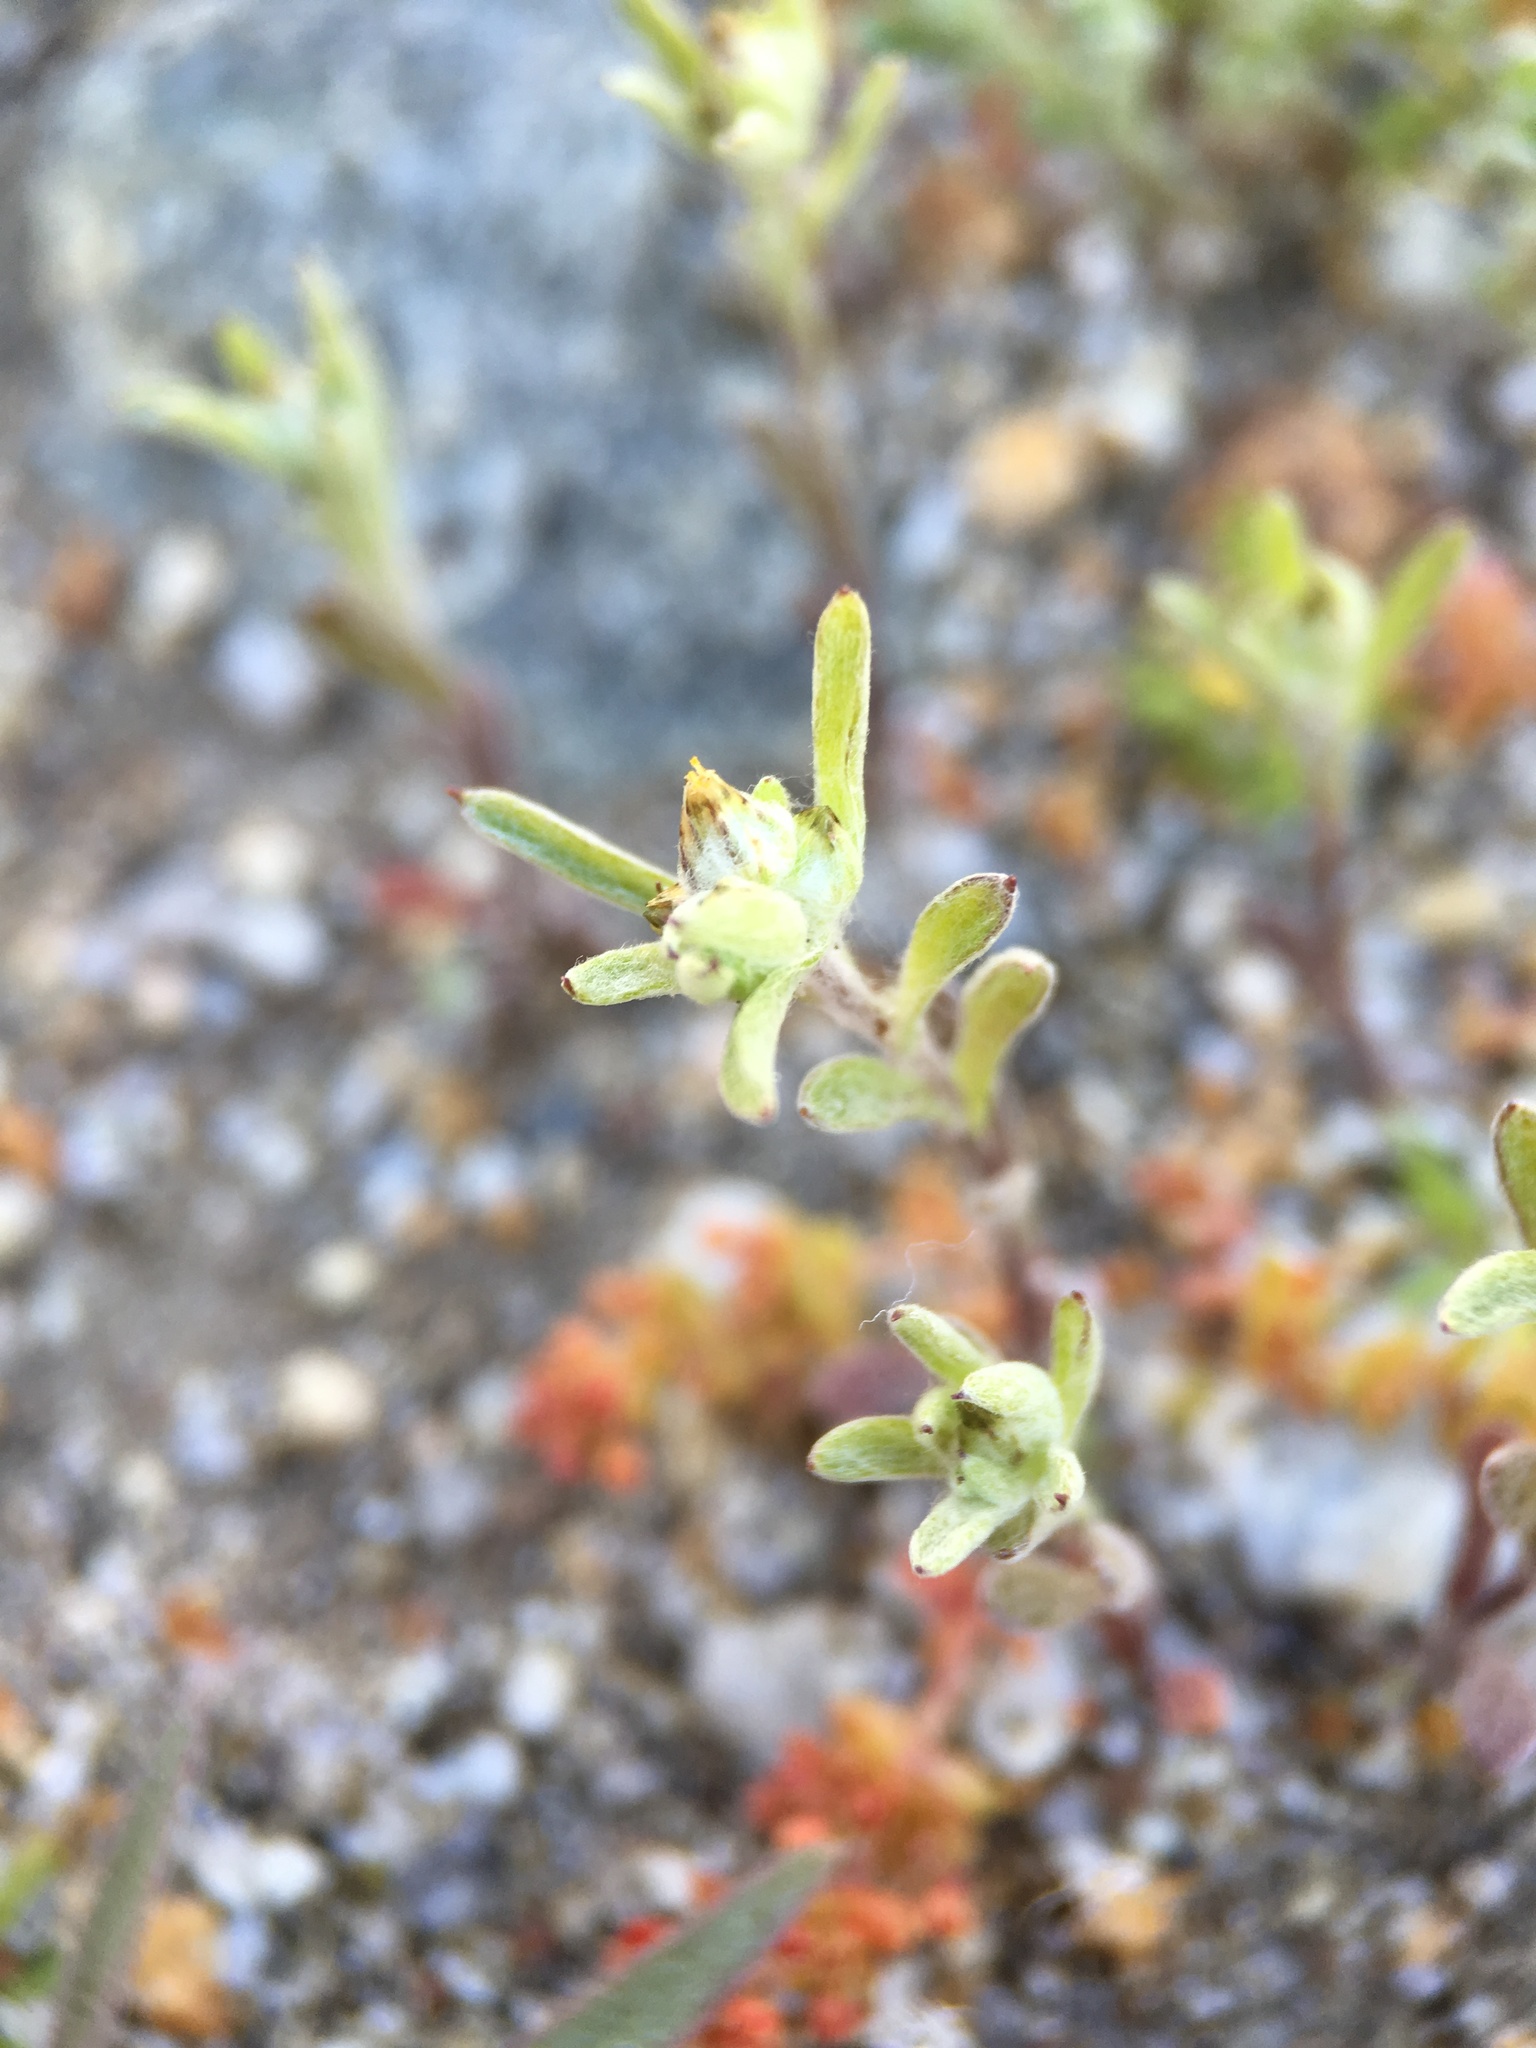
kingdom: Plantae
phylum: Tracheophyta
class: Magnoliopsida
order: Asterales
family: Asteraceae
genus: Logfia
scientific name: Logfia californica
